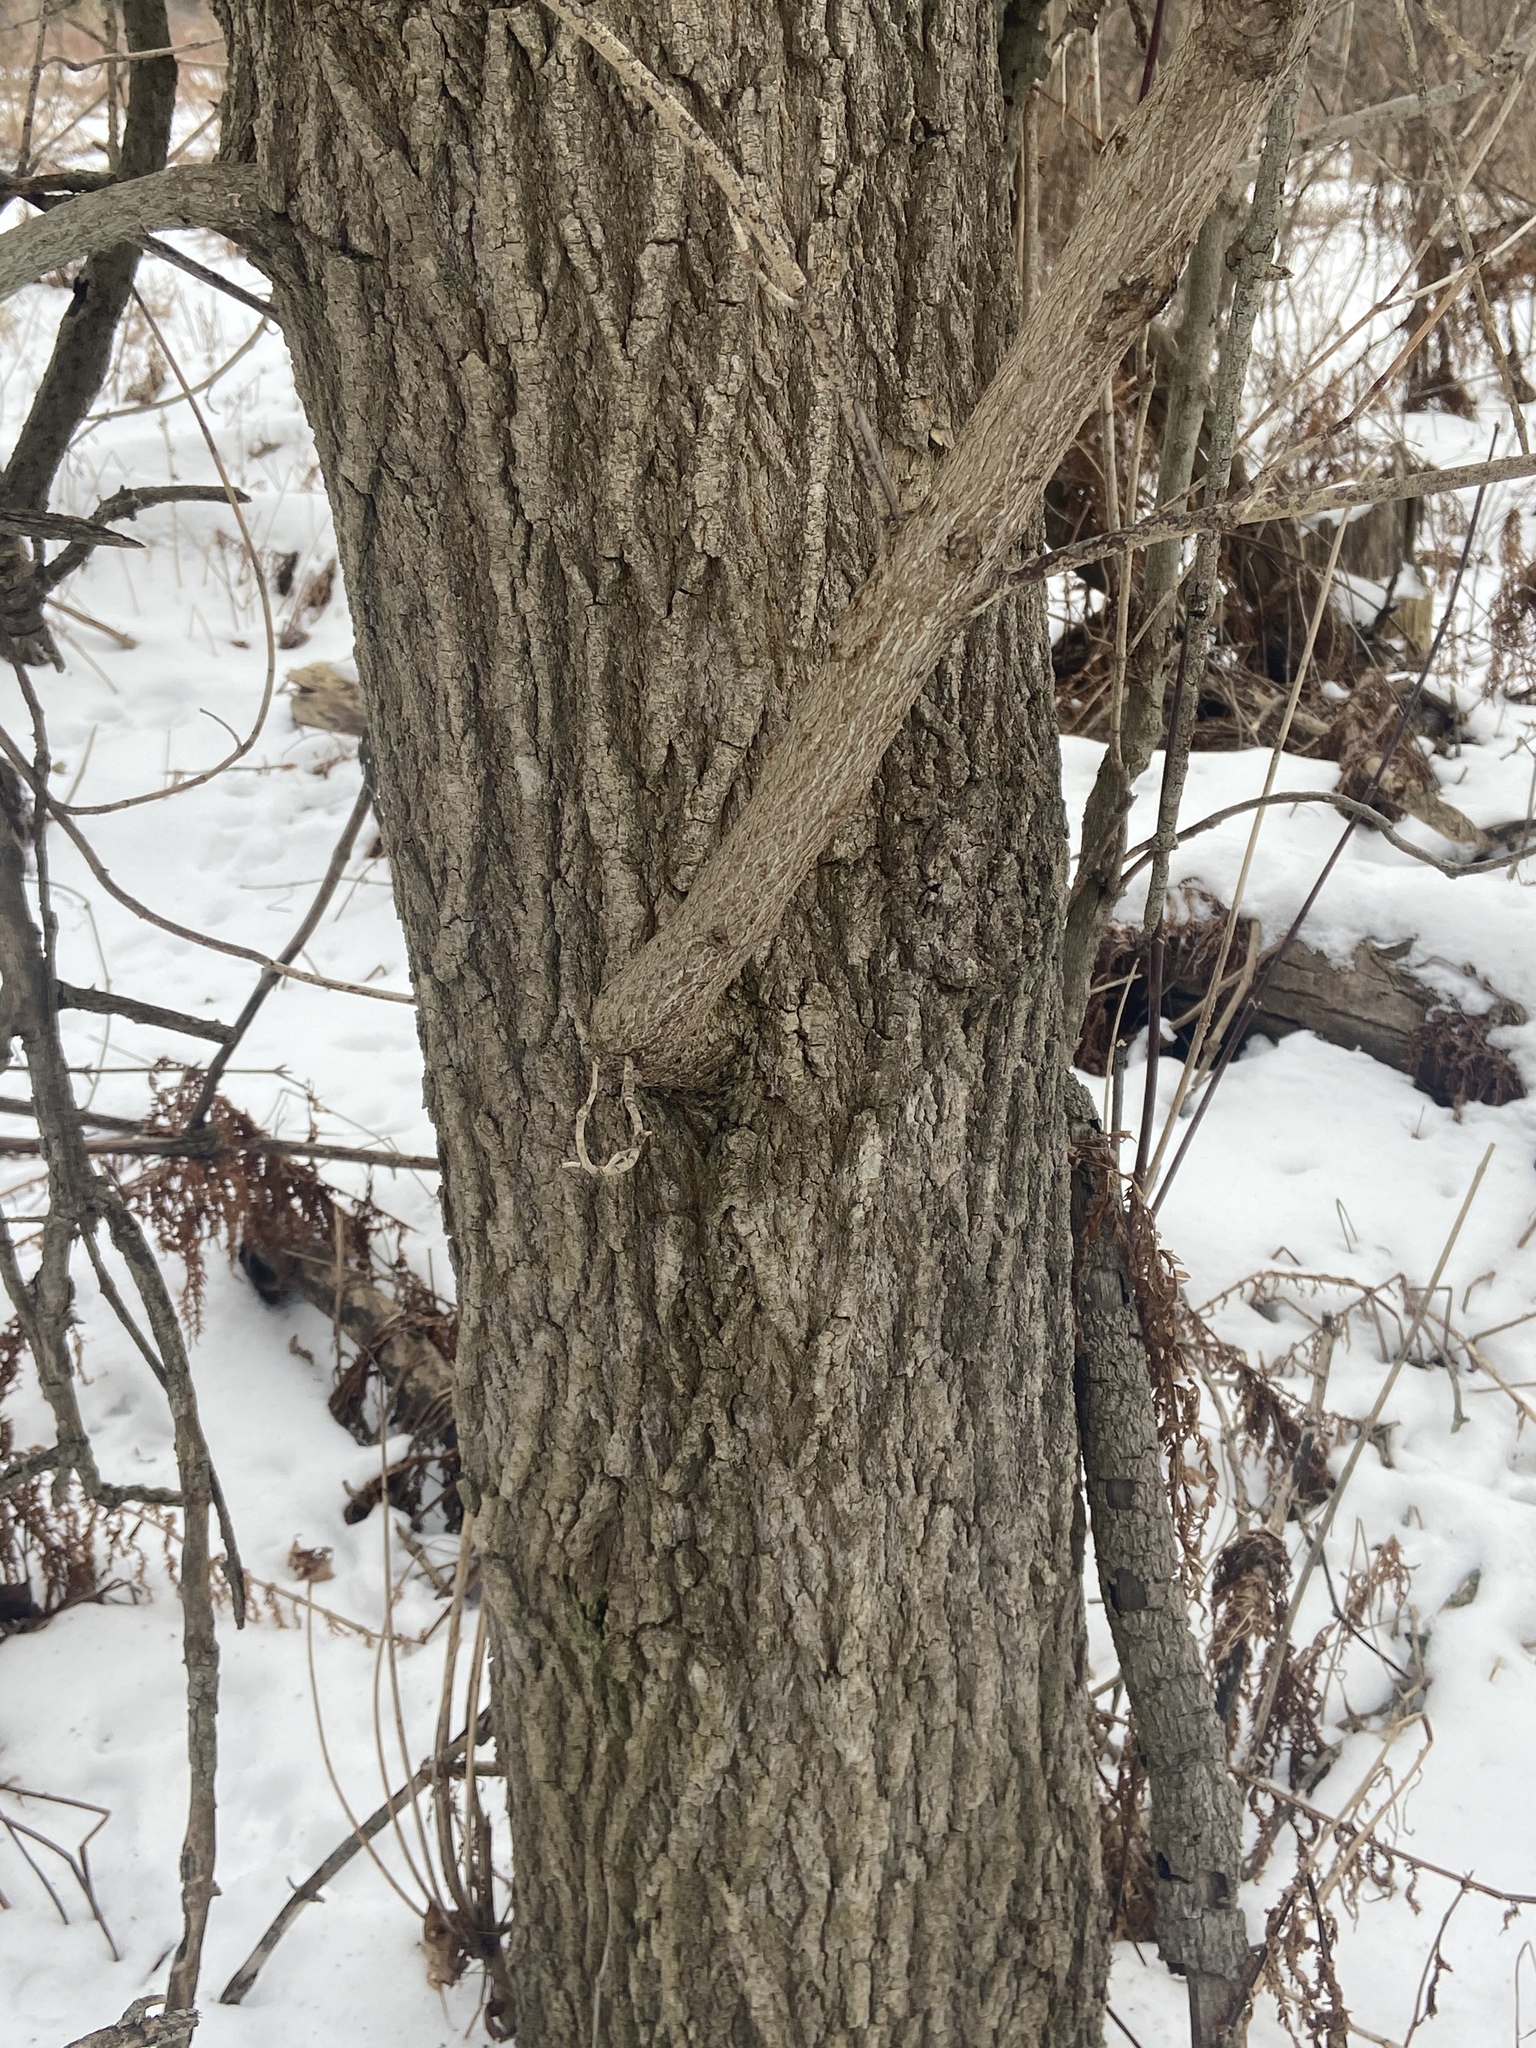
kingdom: Plantae
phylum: Tracheophyta
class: Magnoliopsida
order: Sapindales
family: Sapindaceae
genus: Acer
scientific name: Acer negundo
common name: Ashleaf maple
